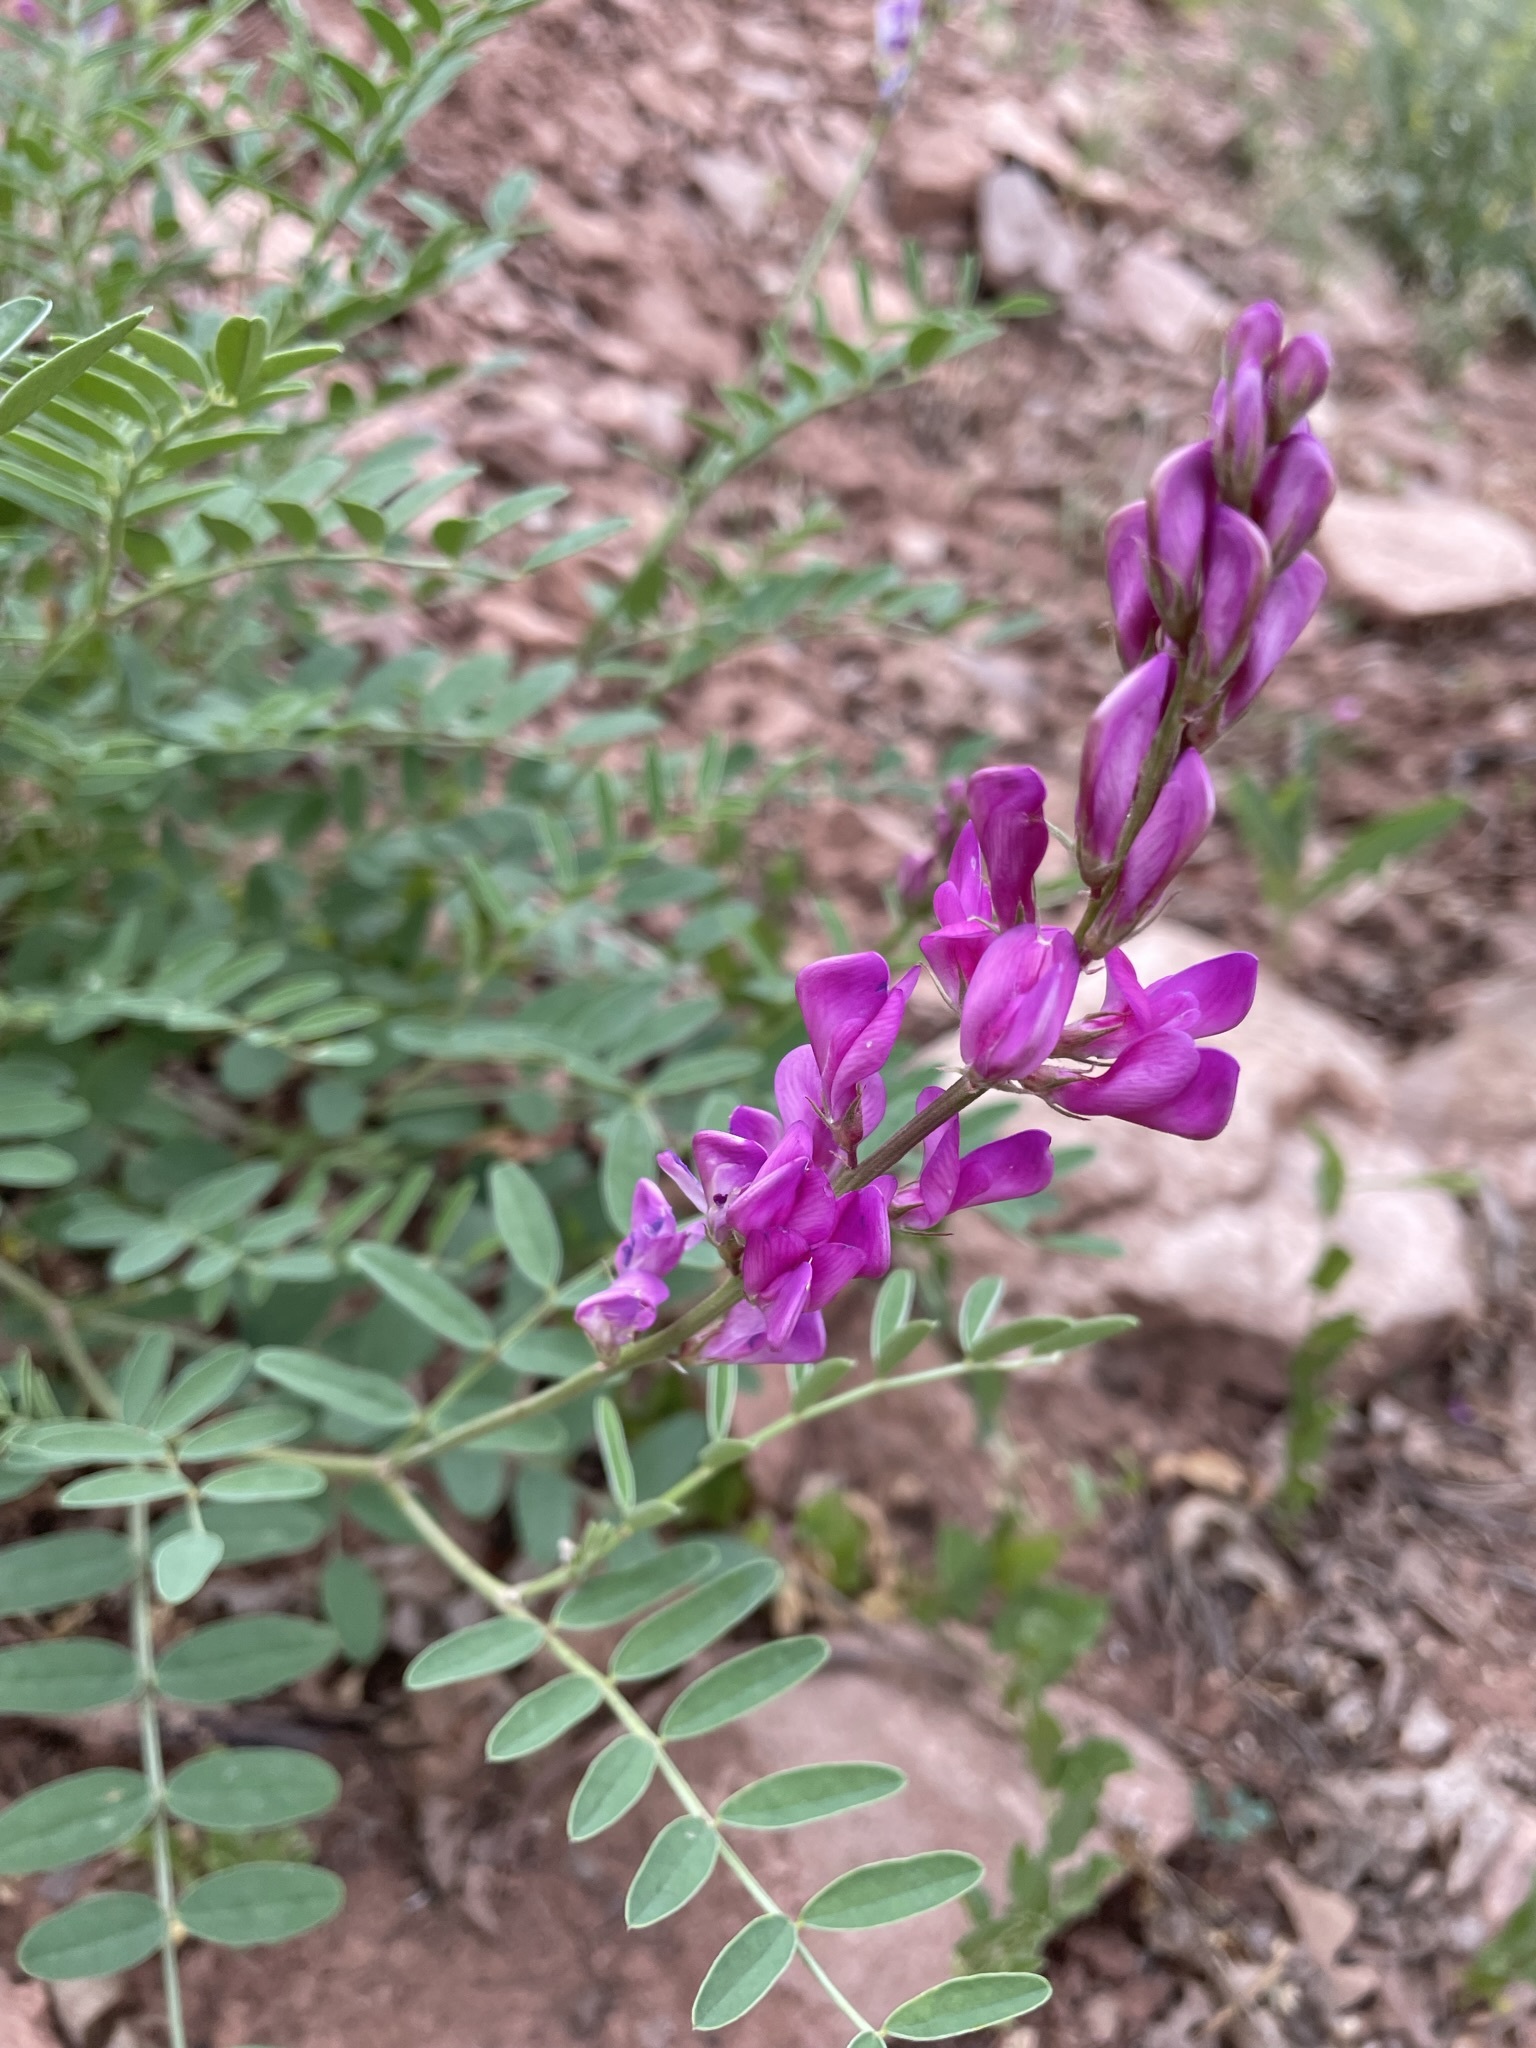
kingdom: Plantae
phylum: Tracheophyta
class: Magnoliopsida
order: Fabales
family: Fabaceae
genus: Hedysarum
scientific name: Hedysarum boreale
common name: Northern sweet-vetch
